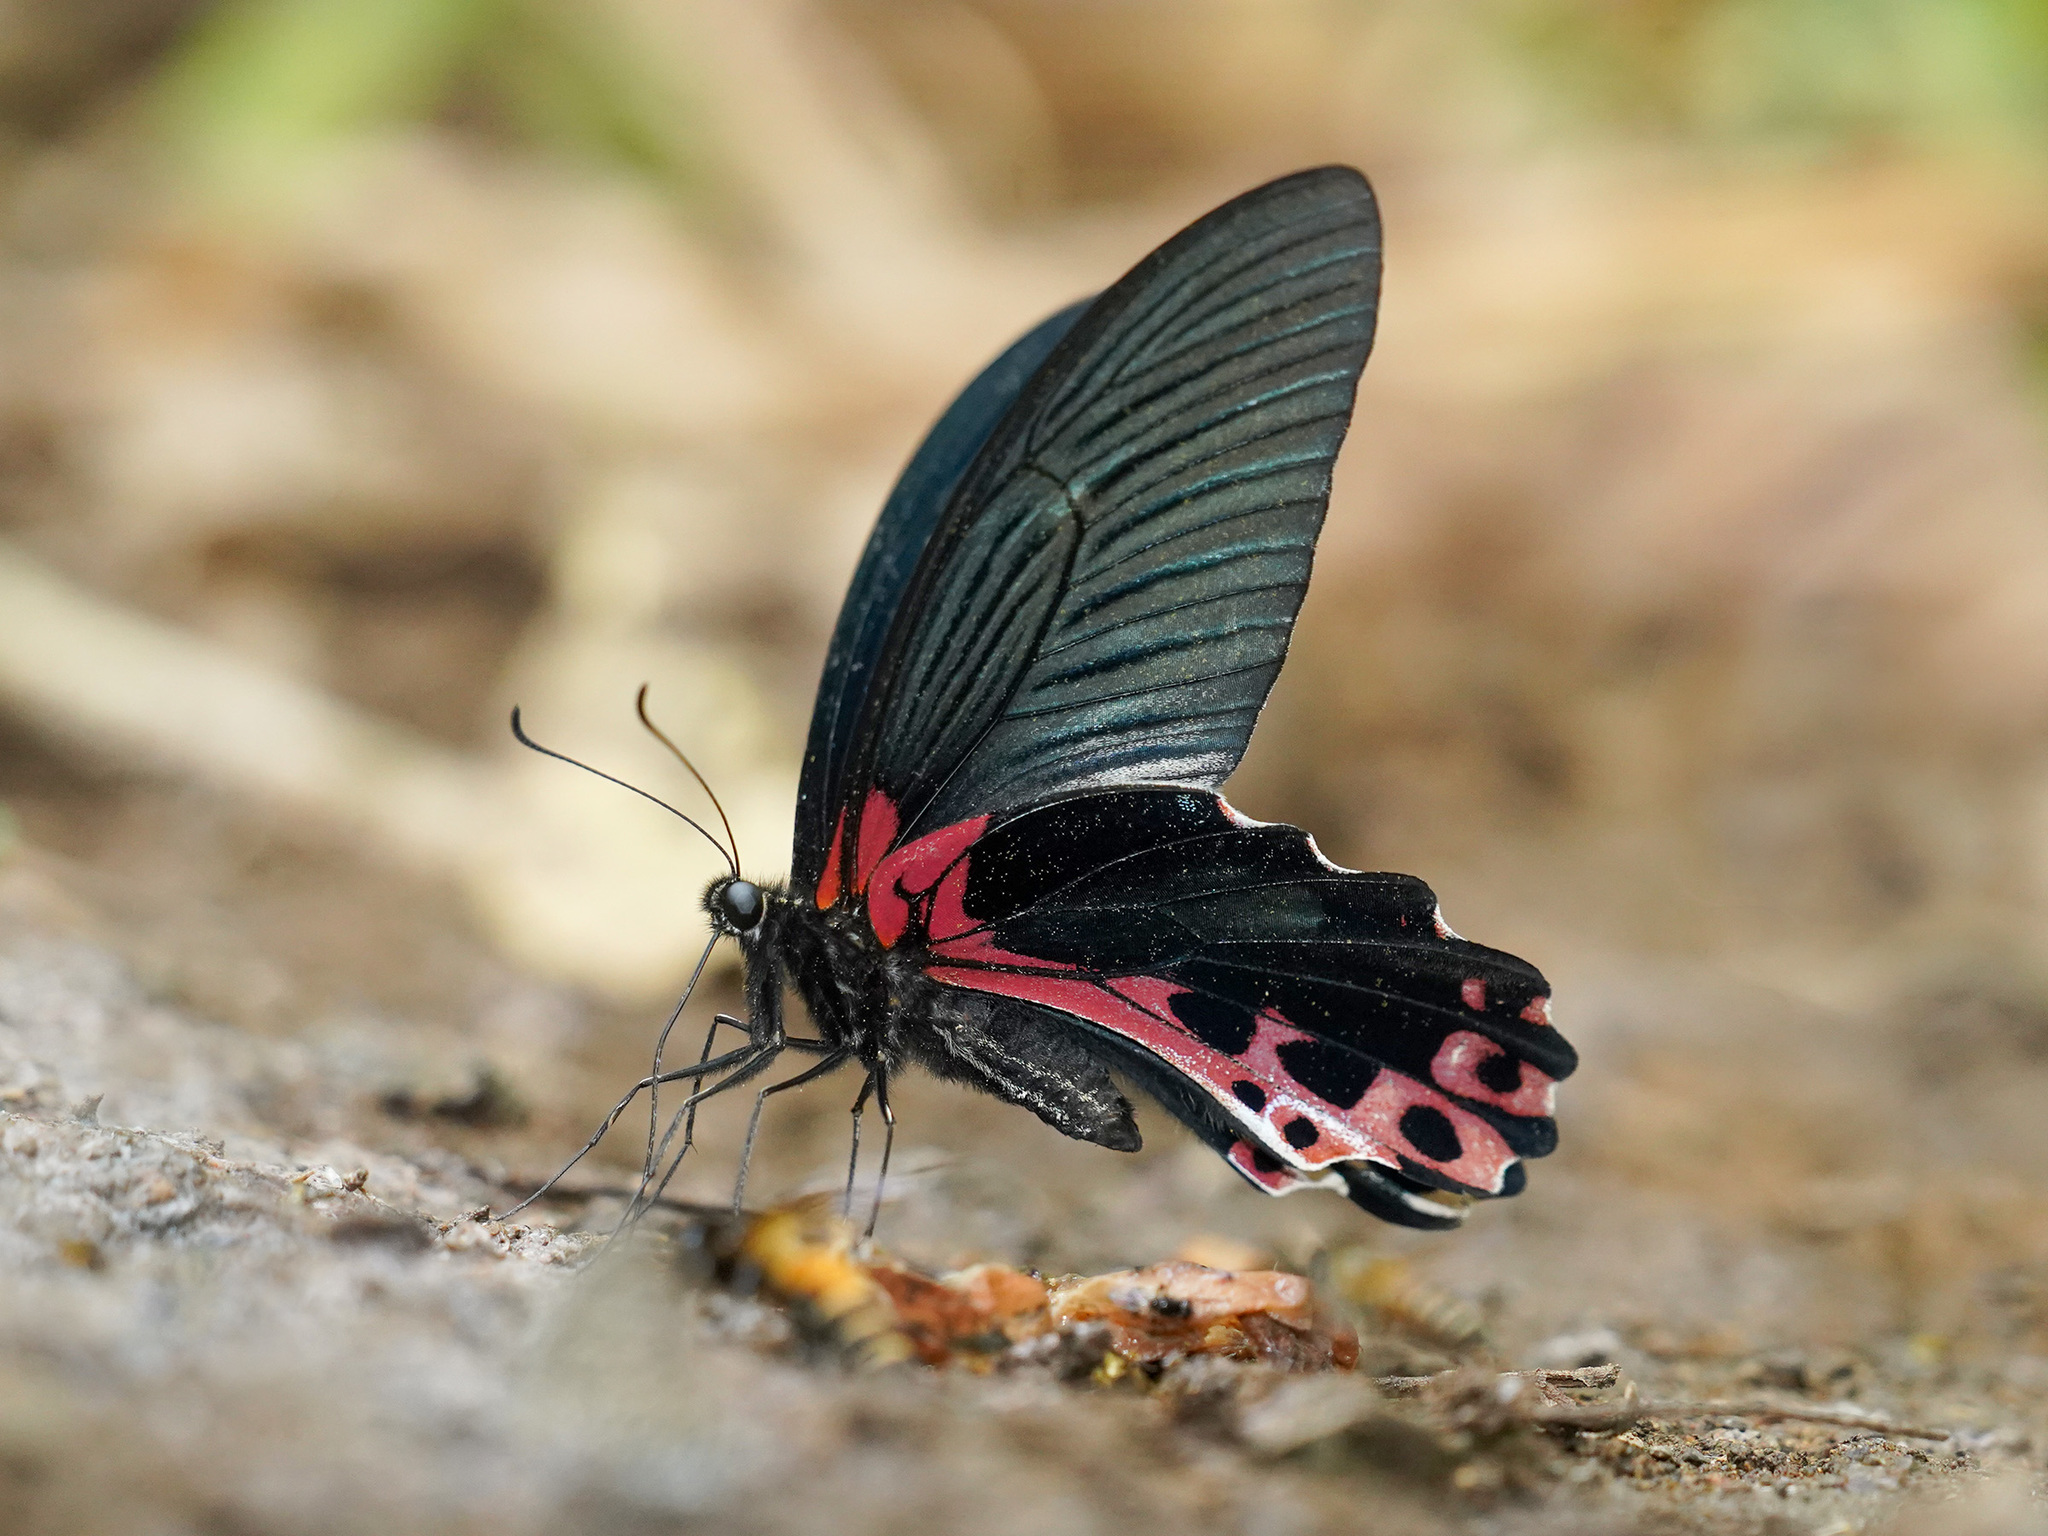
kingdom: Animalia
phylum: Arthropoda
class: Insecta
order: Lepidoptera
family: Papilionidae
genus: Papilio
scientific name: Papilio alcmenor
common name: Redbreast
